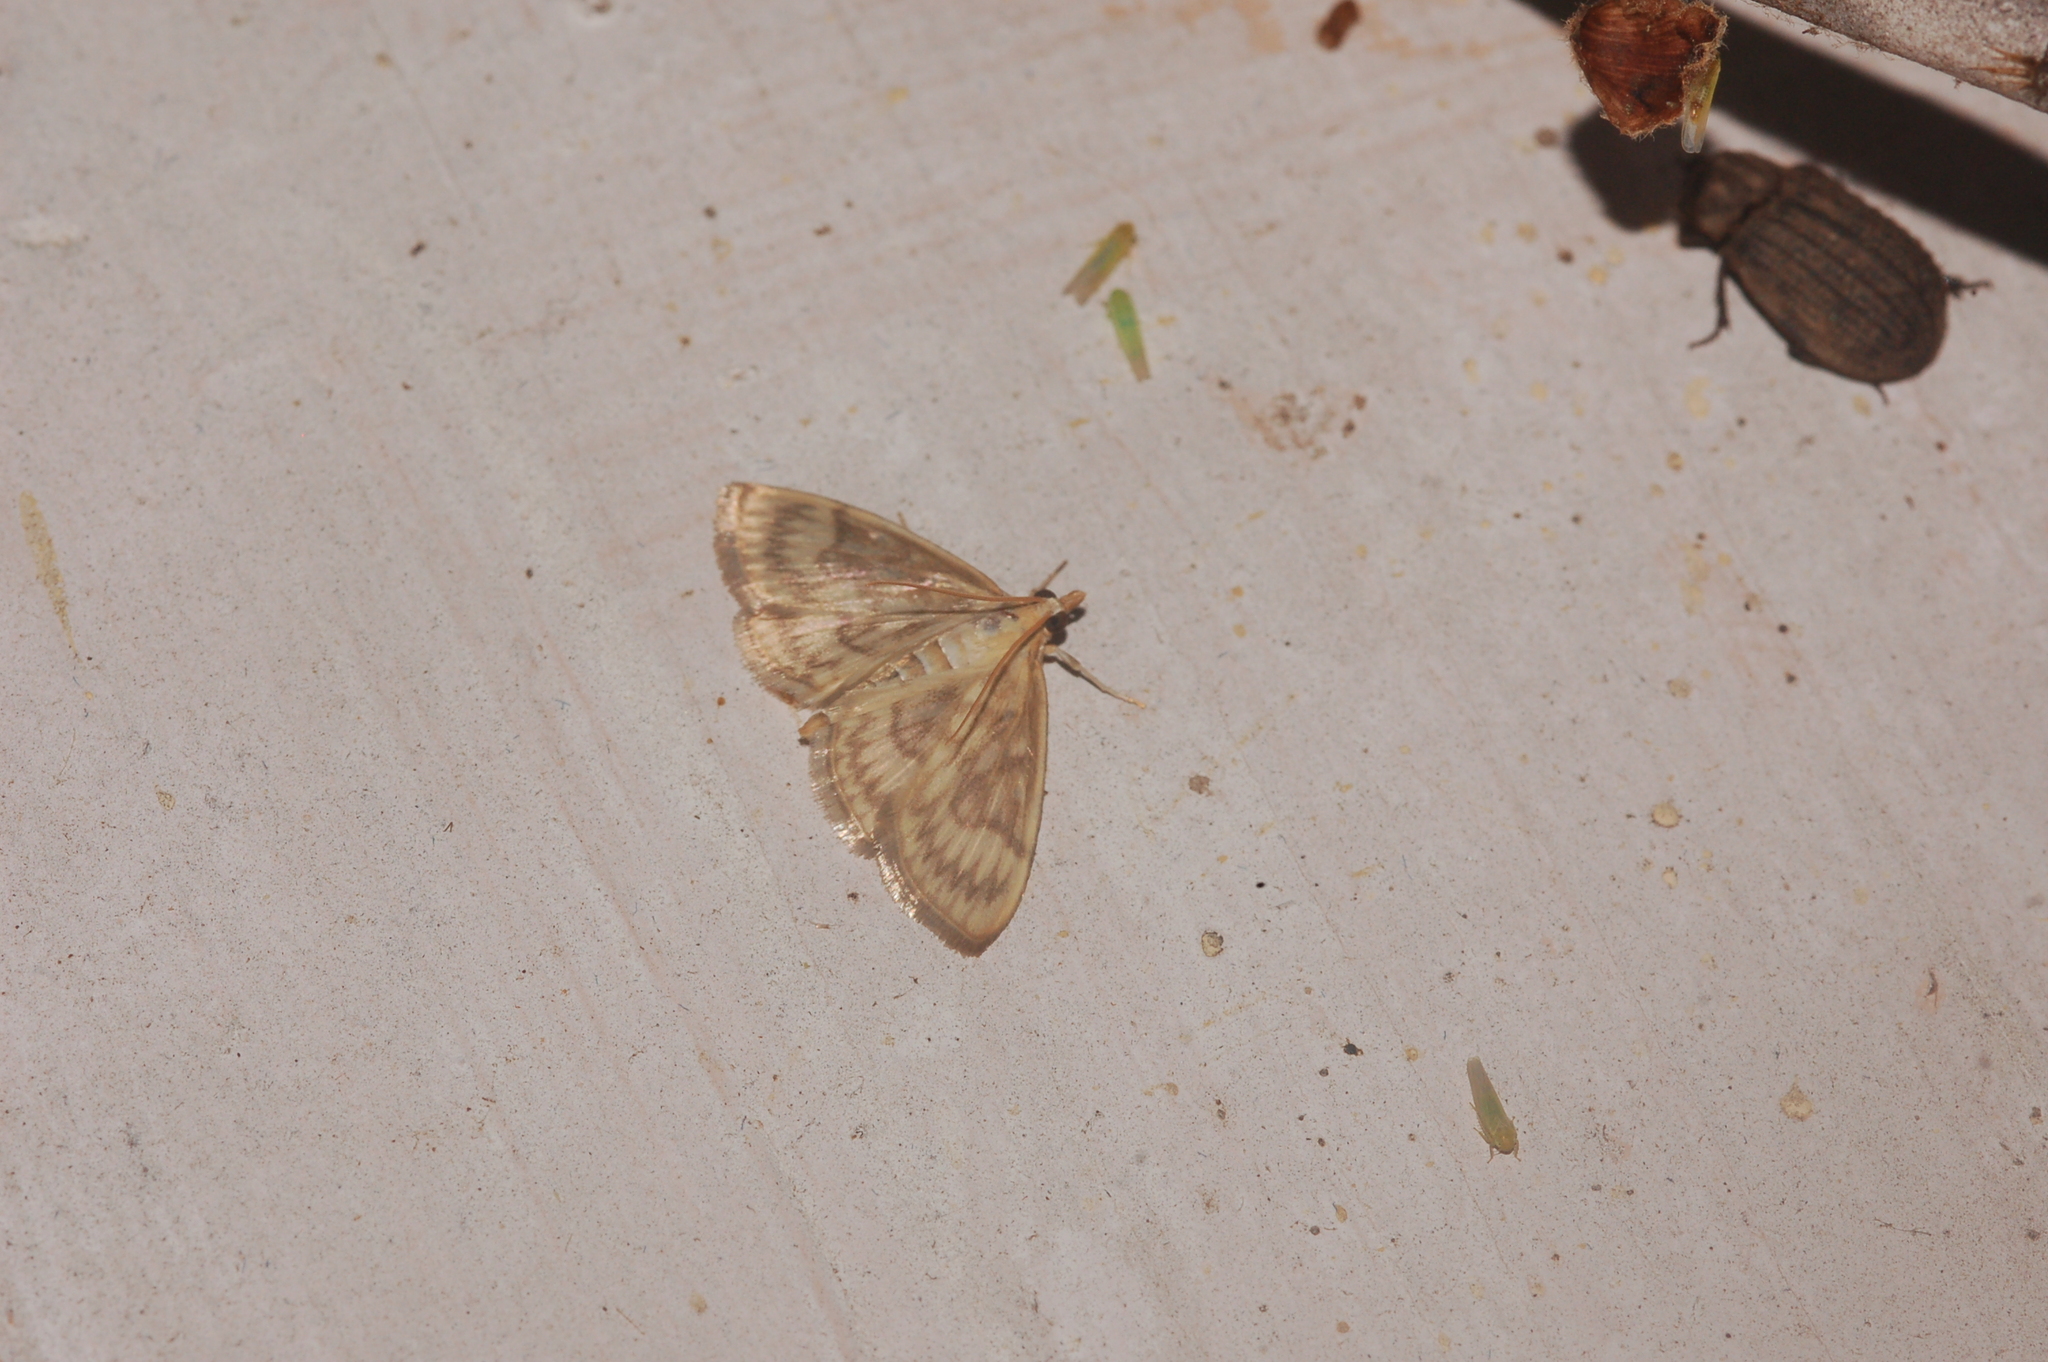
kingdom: Animalia
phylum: Arthropoda
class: Insecta
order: Lepidoptera
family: Crambidae
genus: Crocidophora
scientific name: Crocidophora serratissimalis
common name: Saw-toothed crocidophora moth
